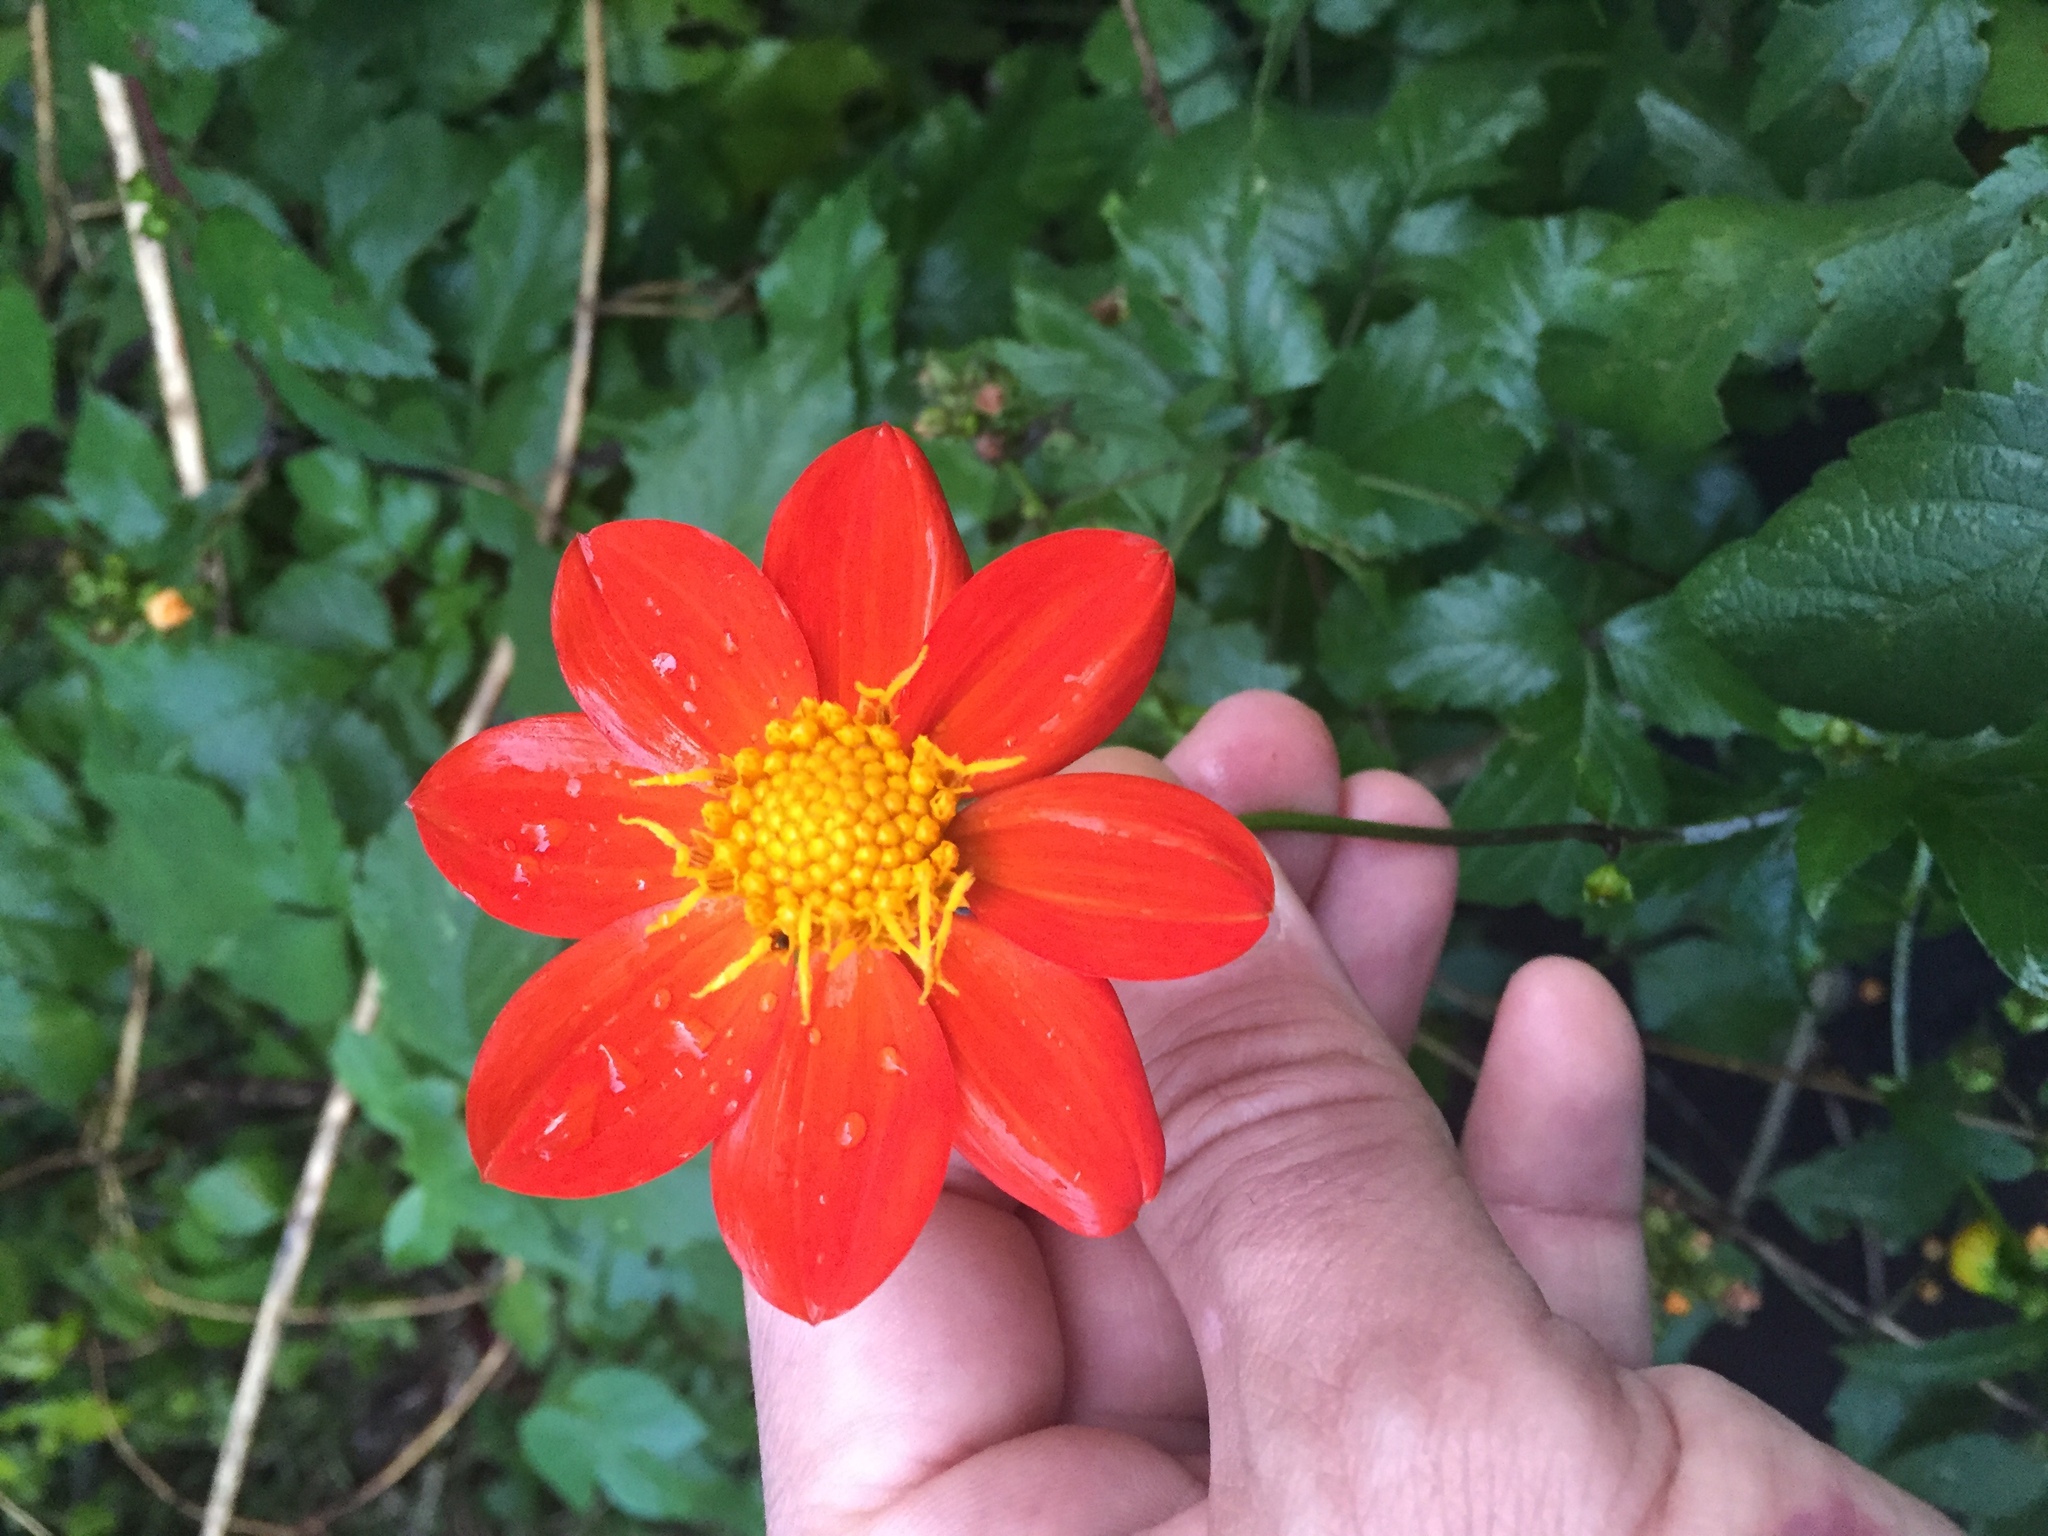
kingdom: Plantae
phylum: Tracheophyta
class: Magnoliopsida
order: Asterales
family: Asteraceae
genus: Dahlia
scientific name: Dahlia coccinea
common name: Red dahlia
